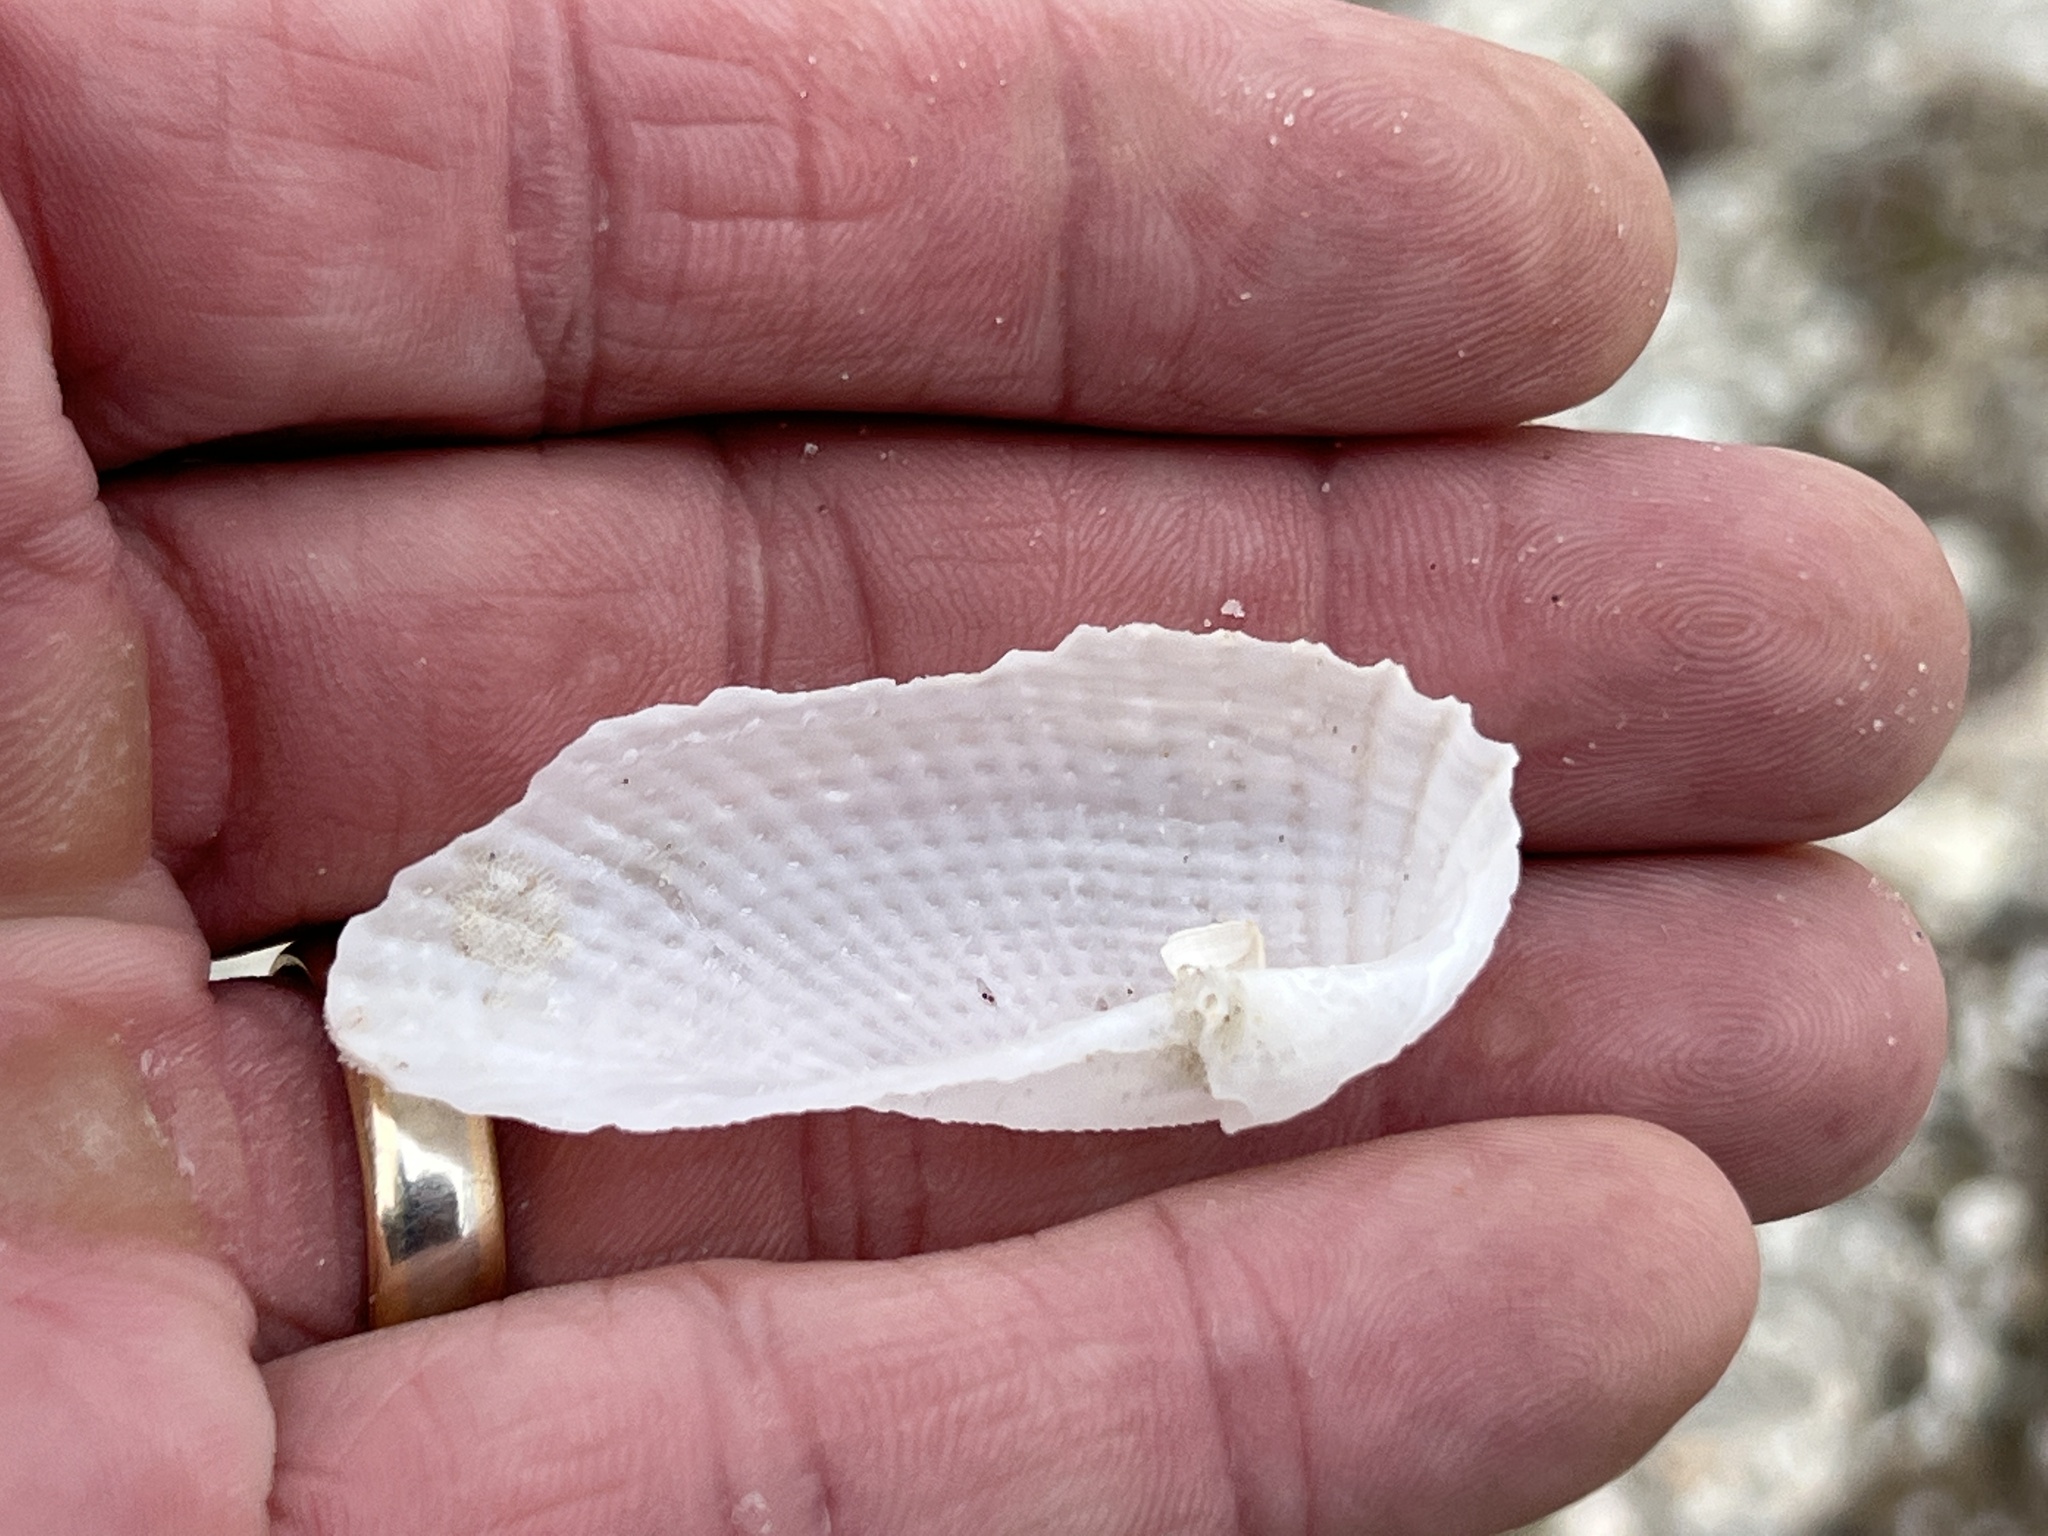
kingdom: Animalia
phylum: Mollusca
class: Bivalvia
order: Myida
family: Pholadidae
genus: Cyrtopleura
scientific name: Cyrtopleura costata
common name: Angel wing
